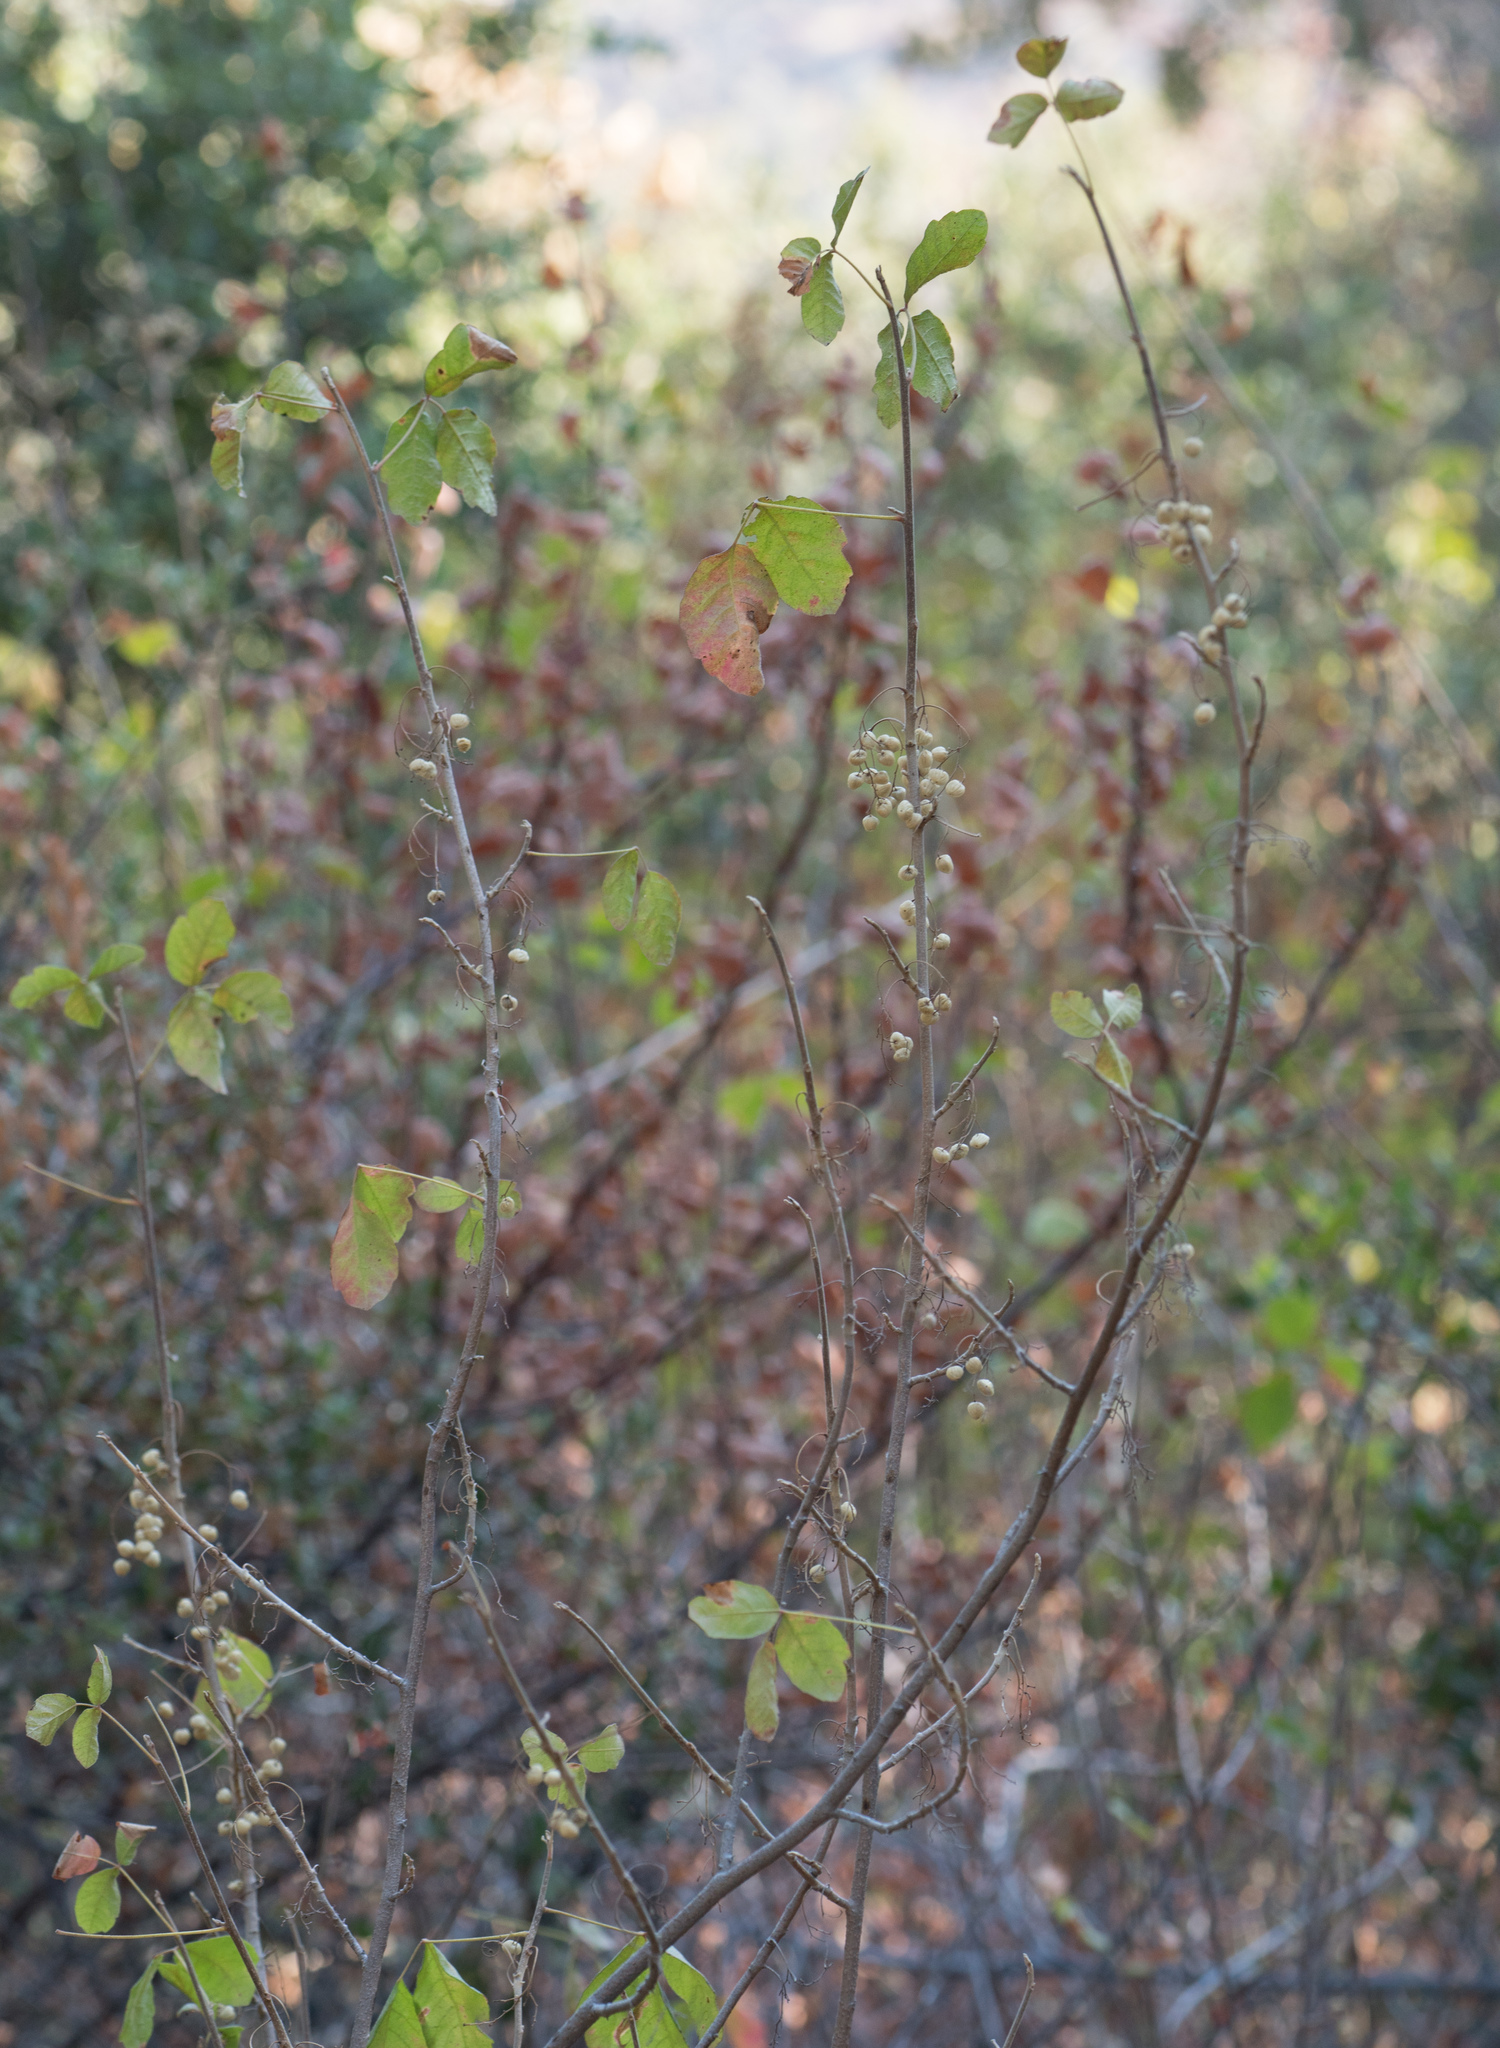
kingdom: Plantae
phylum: Tracheophyta
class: Magnoliopsida
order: Sapindales
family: Anacardiaceae
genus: Toxicodendron
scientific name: Toxicodendron diversilobum
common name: Pacific poison-oak
